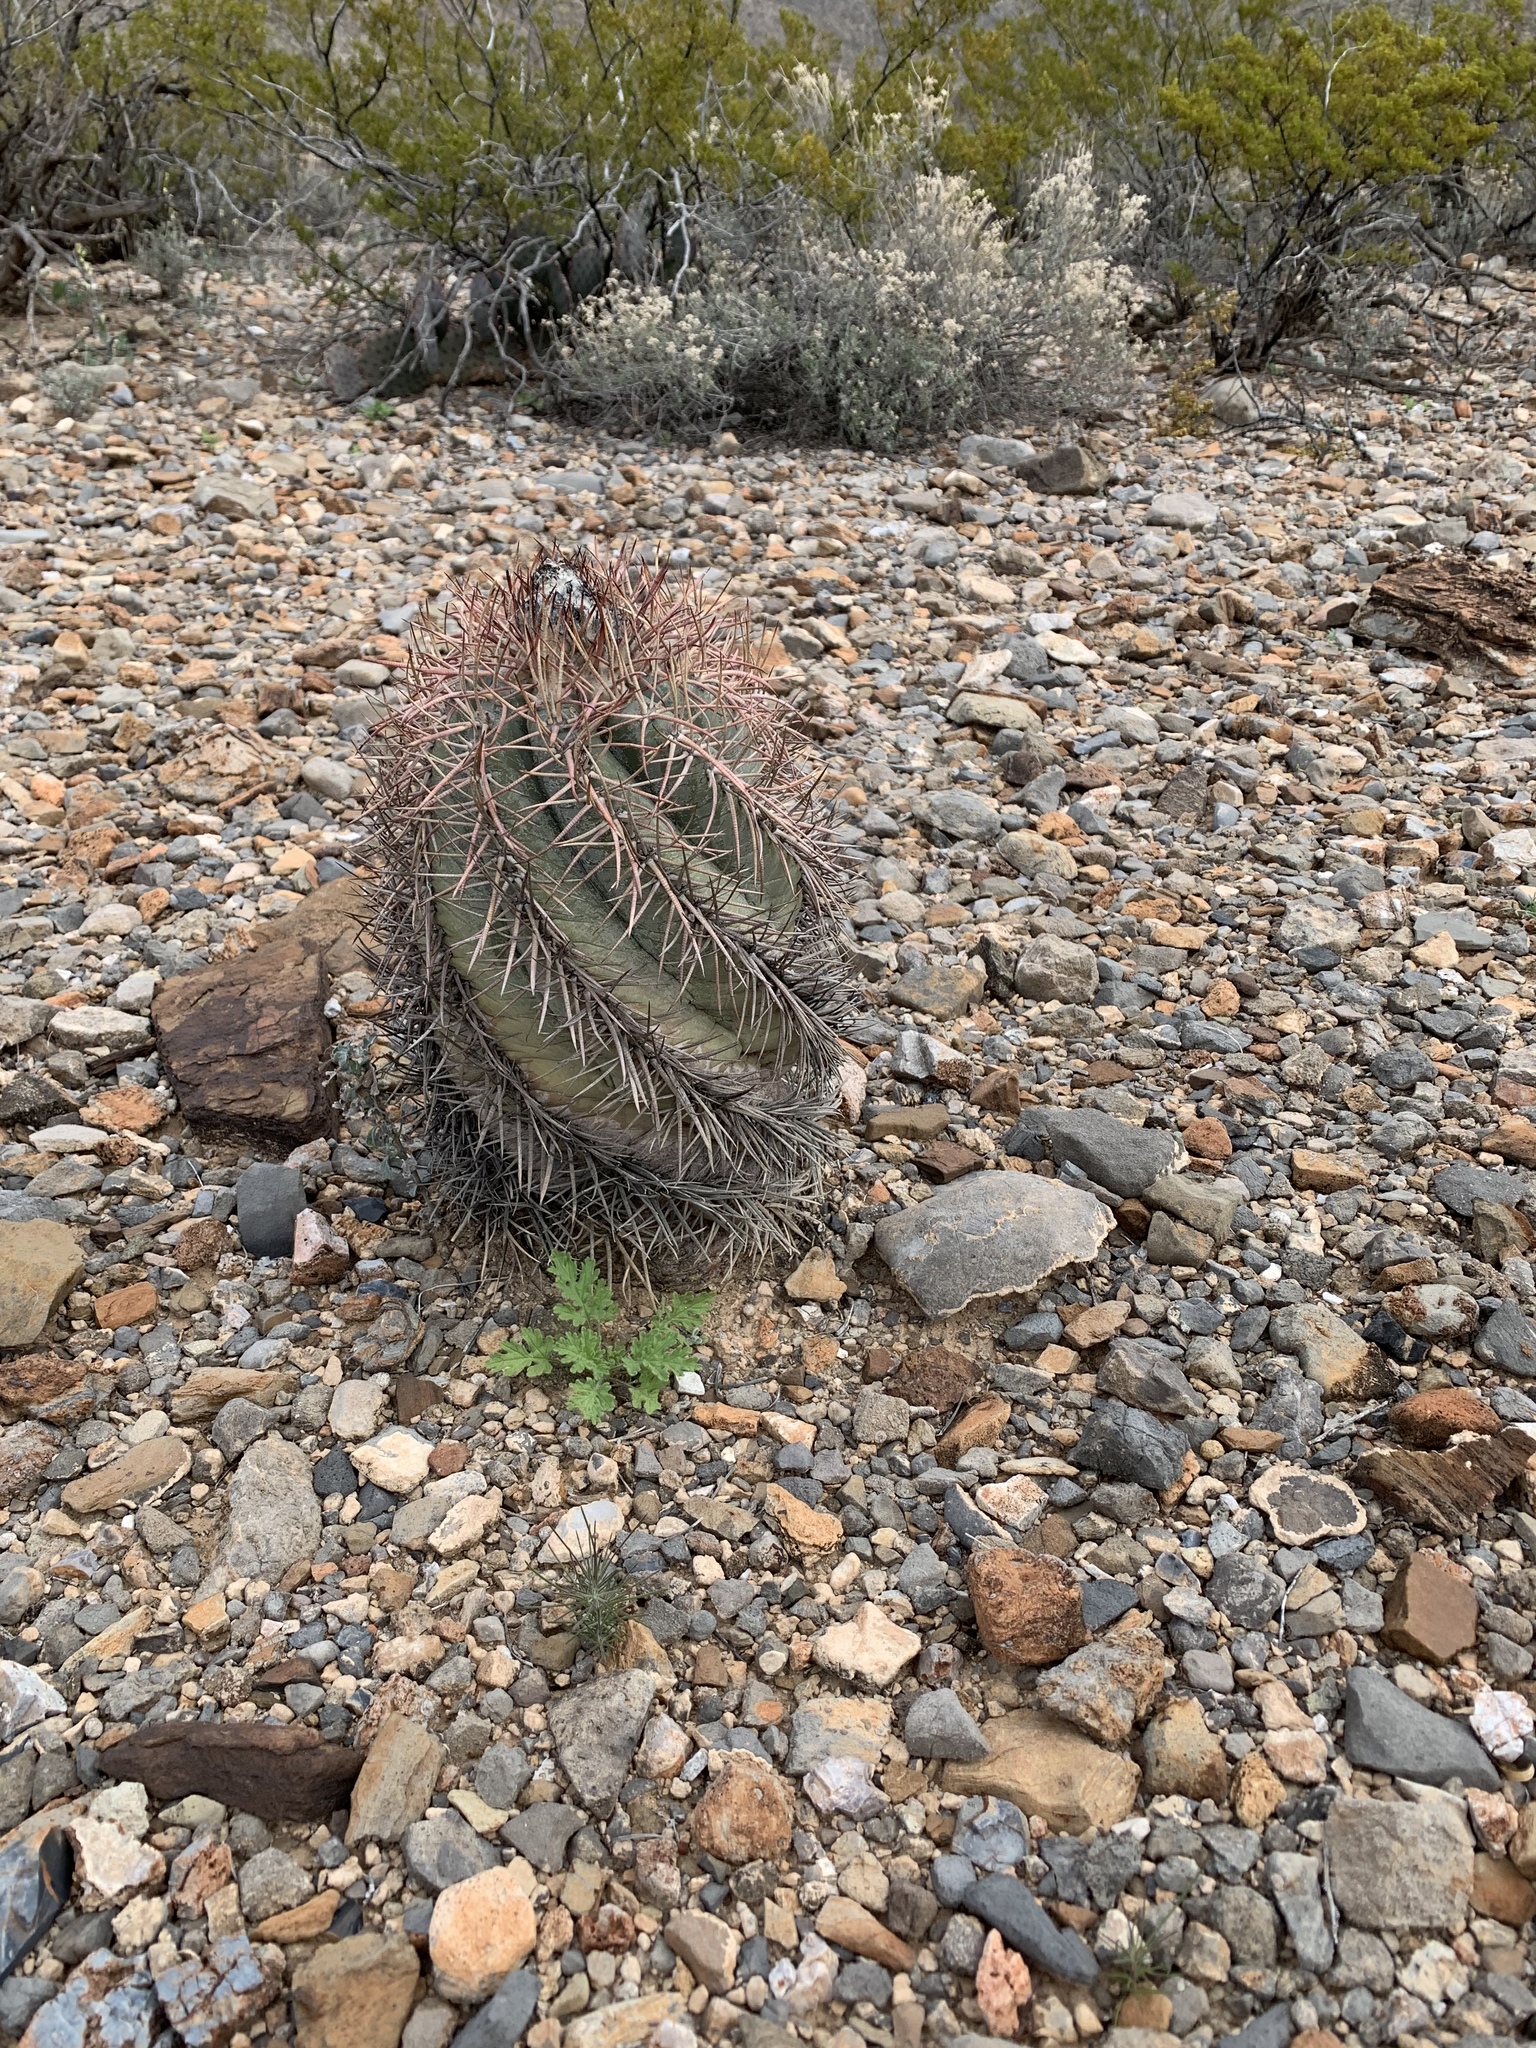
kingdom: Plantae
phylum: Tracheophyta
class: Magnoliopsida
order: Caryophyllales
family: Cactaceae
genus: Echinocactus
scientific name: Echinocactus horizonthalonius
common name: Devilshead
